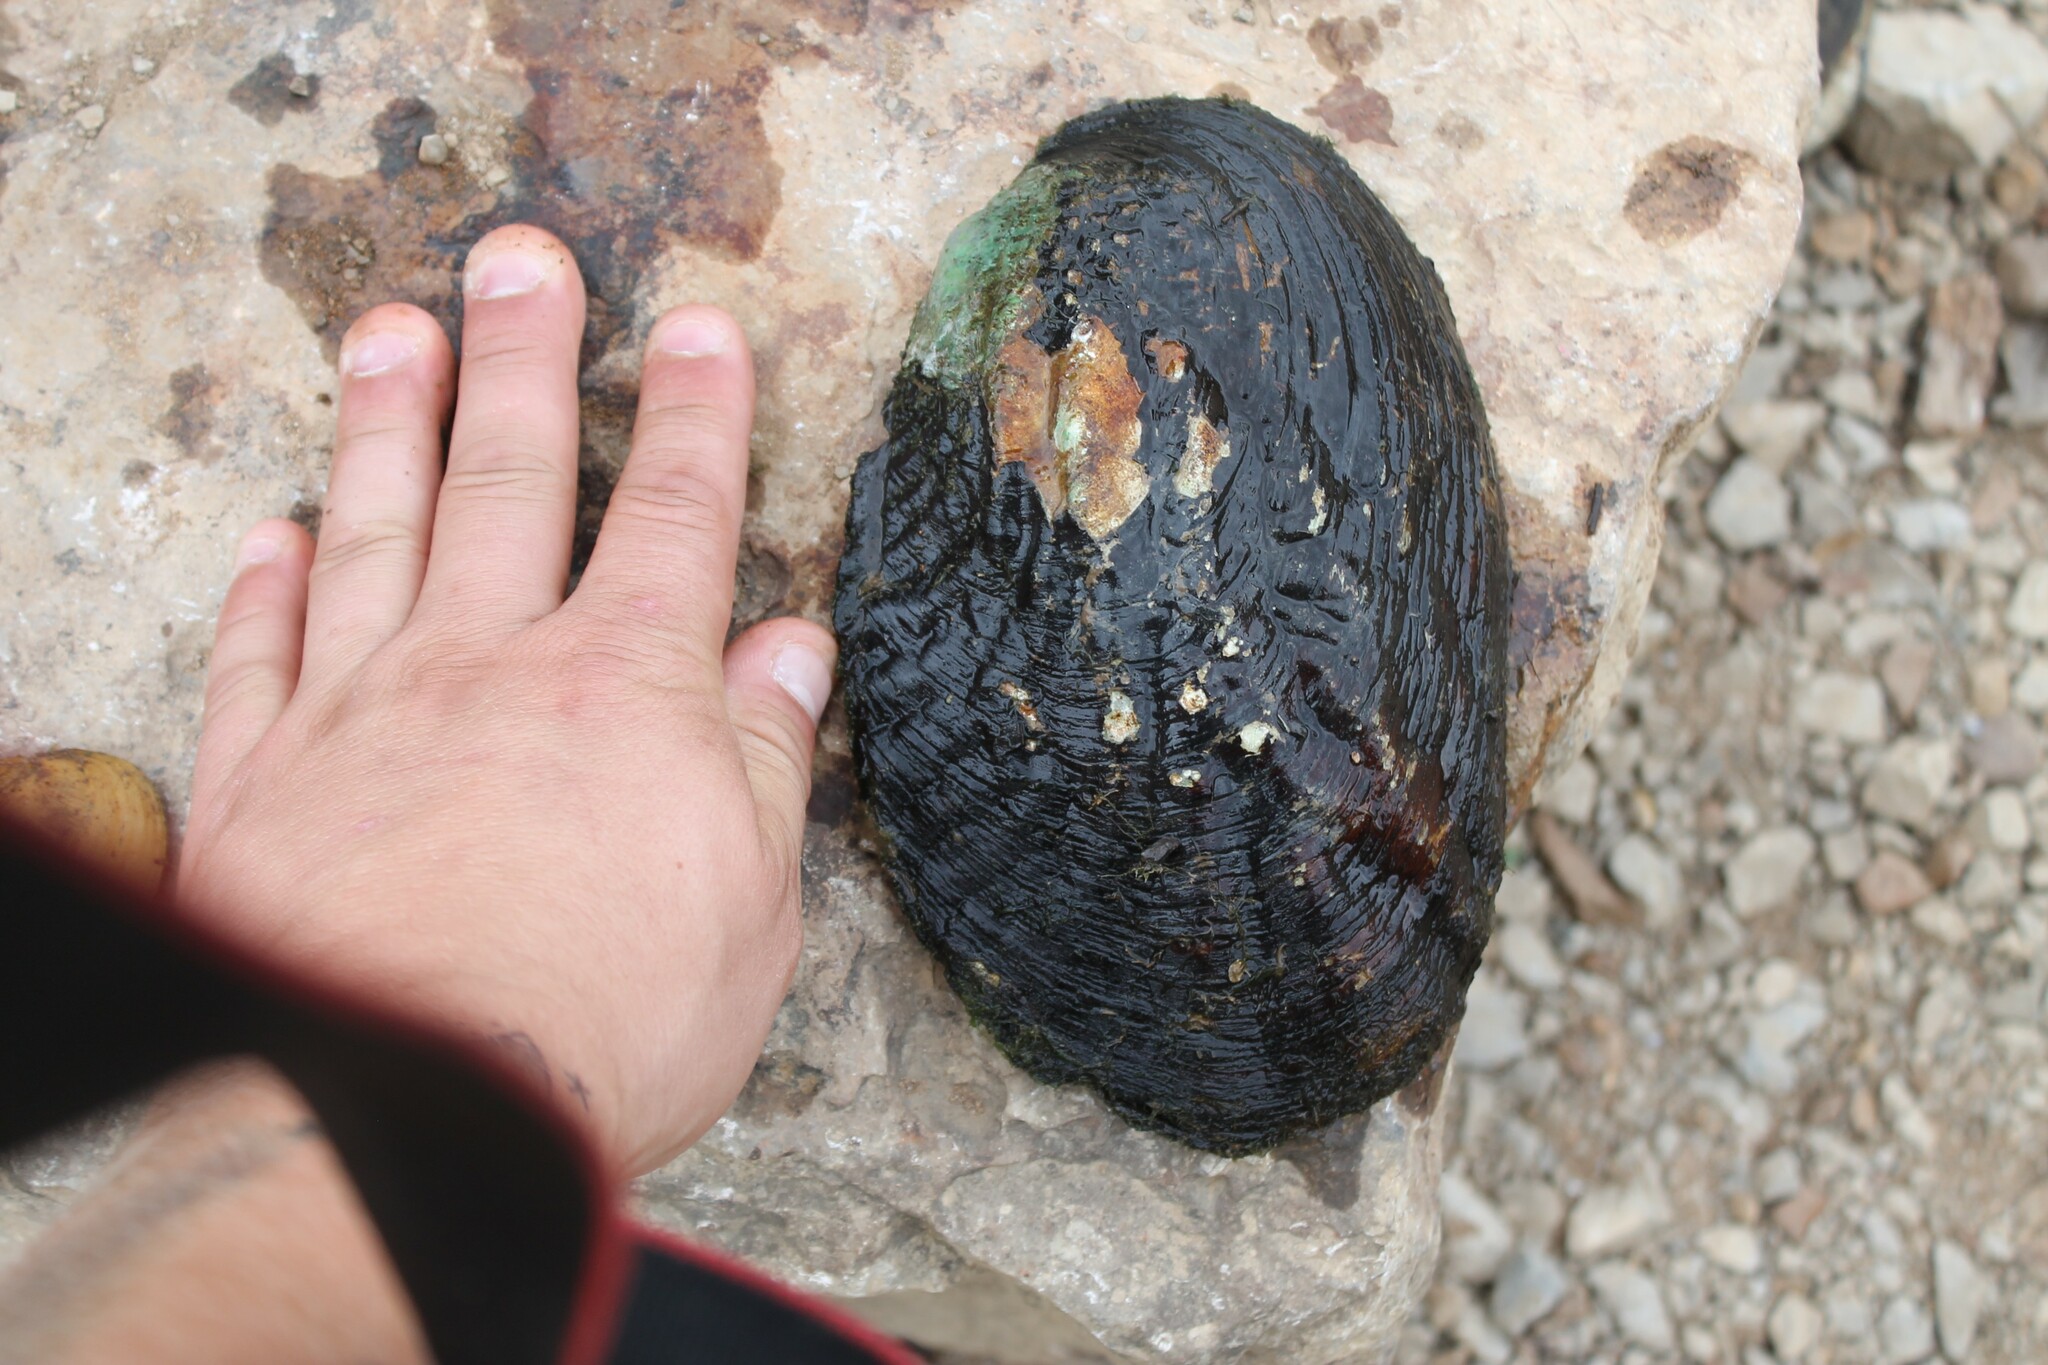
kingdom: Animalia
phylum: Mollusca
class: Bivalvia
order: Unionida
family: Unionidae
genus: Megalonaias
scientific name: Megalonaias nervosa
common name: Washboard
